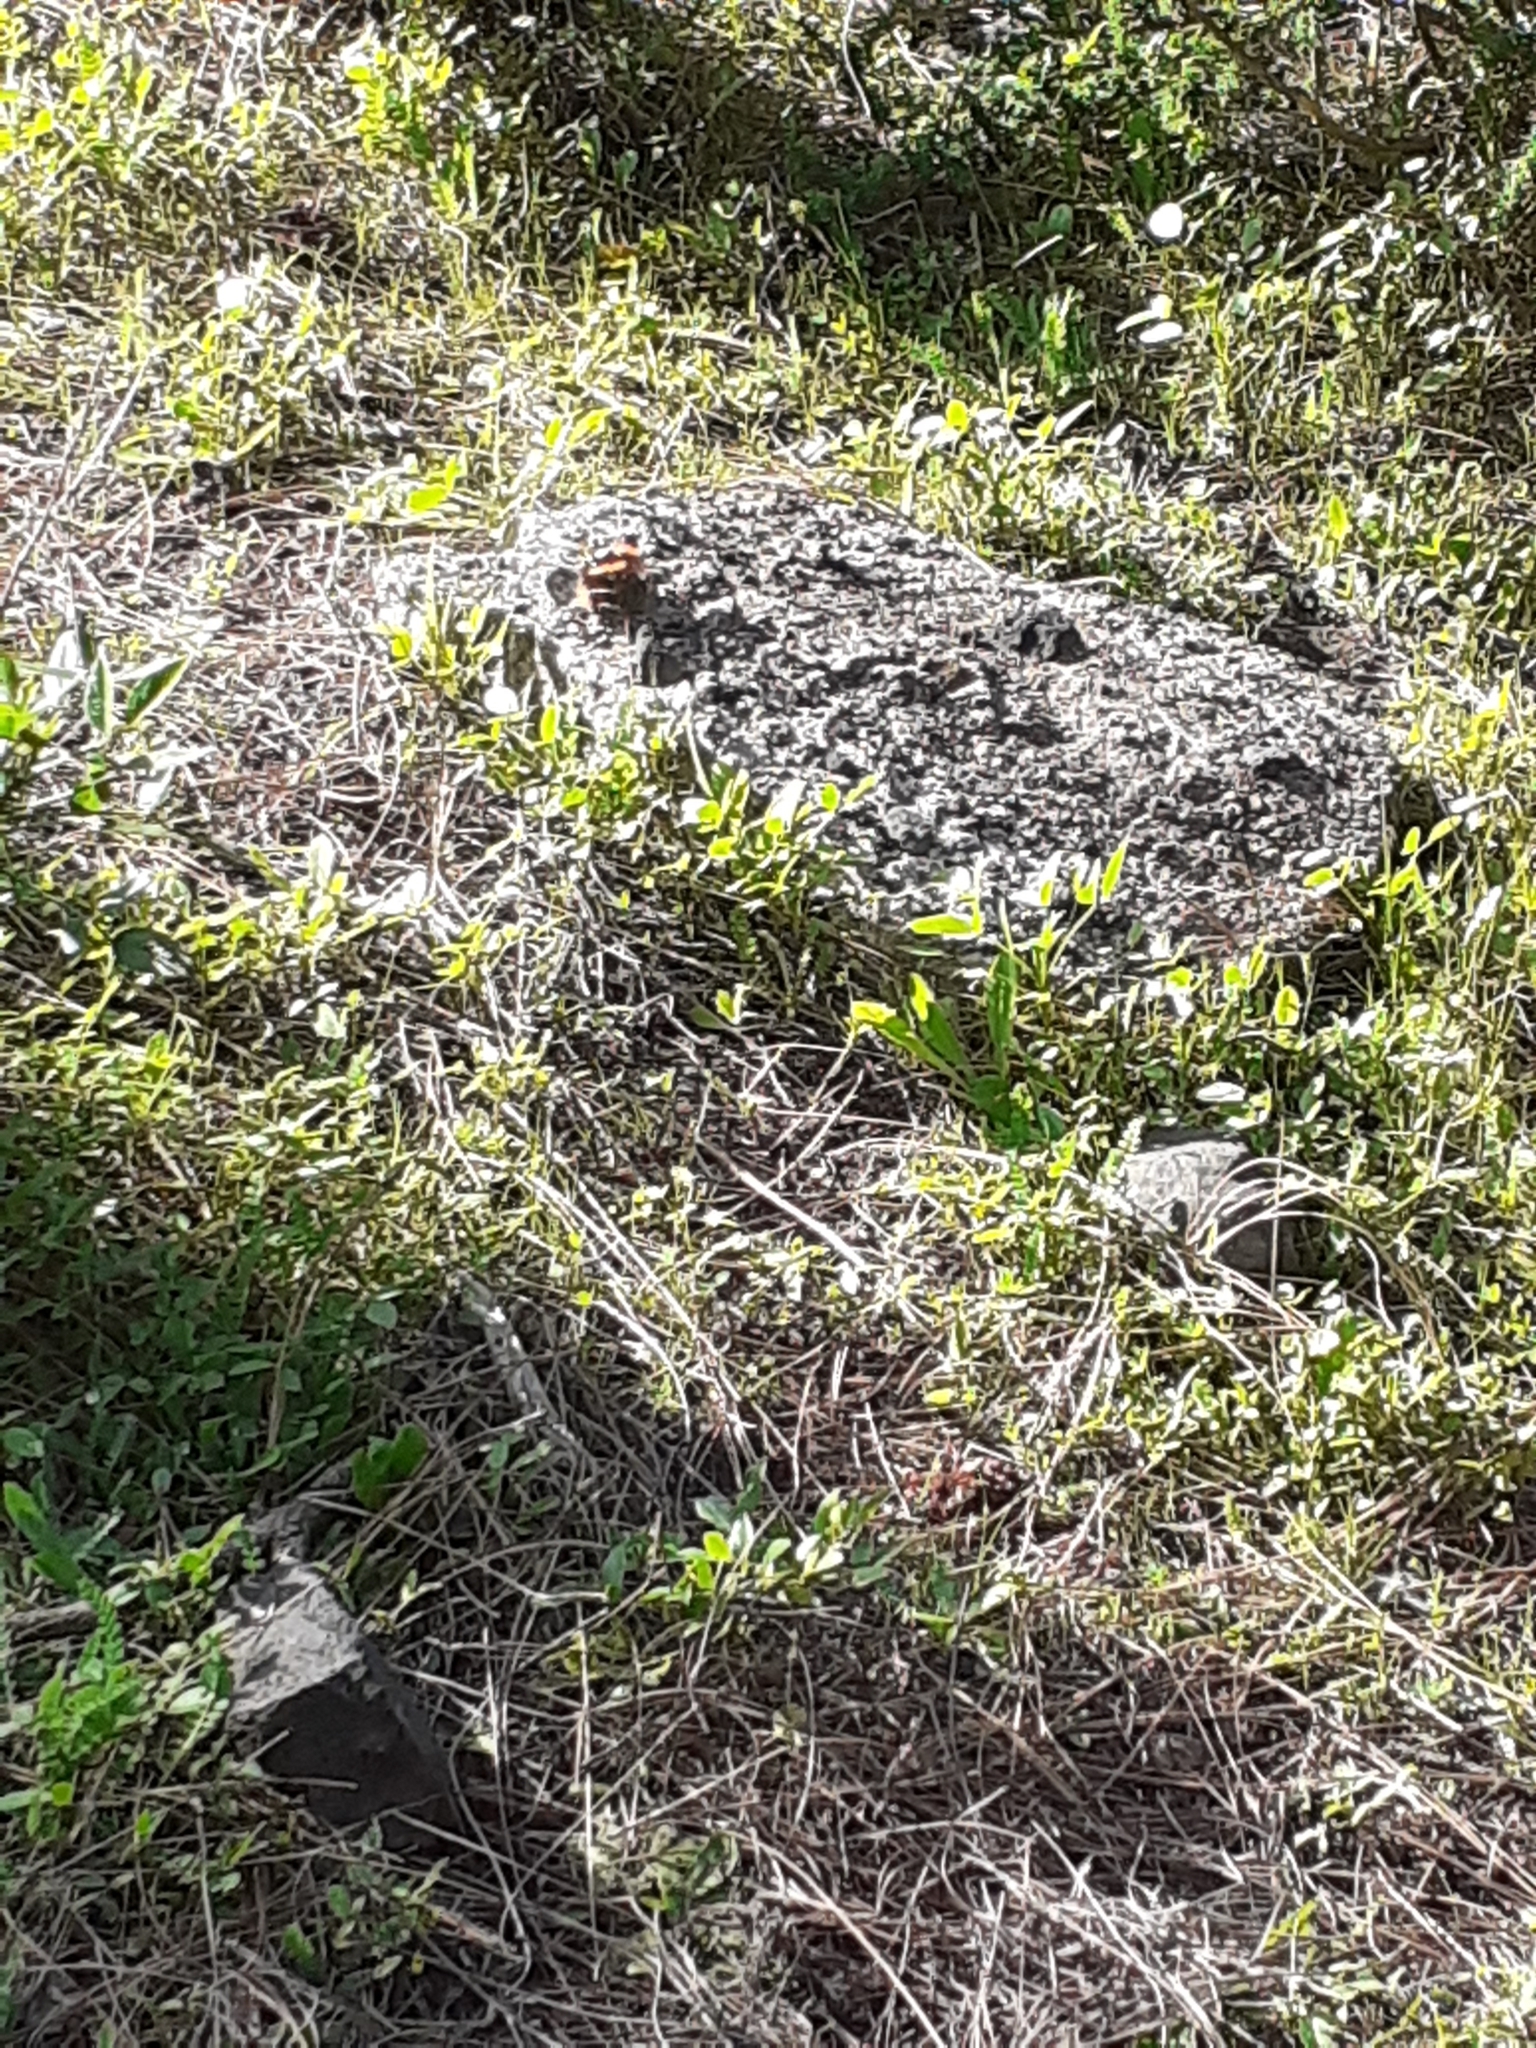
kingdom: Animalia
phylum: Arthropoda
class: Insecta
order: Lepidoptera
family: Nymphalidae
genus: Vanessa
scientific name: Vanessa atalanta
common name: Red admiral
